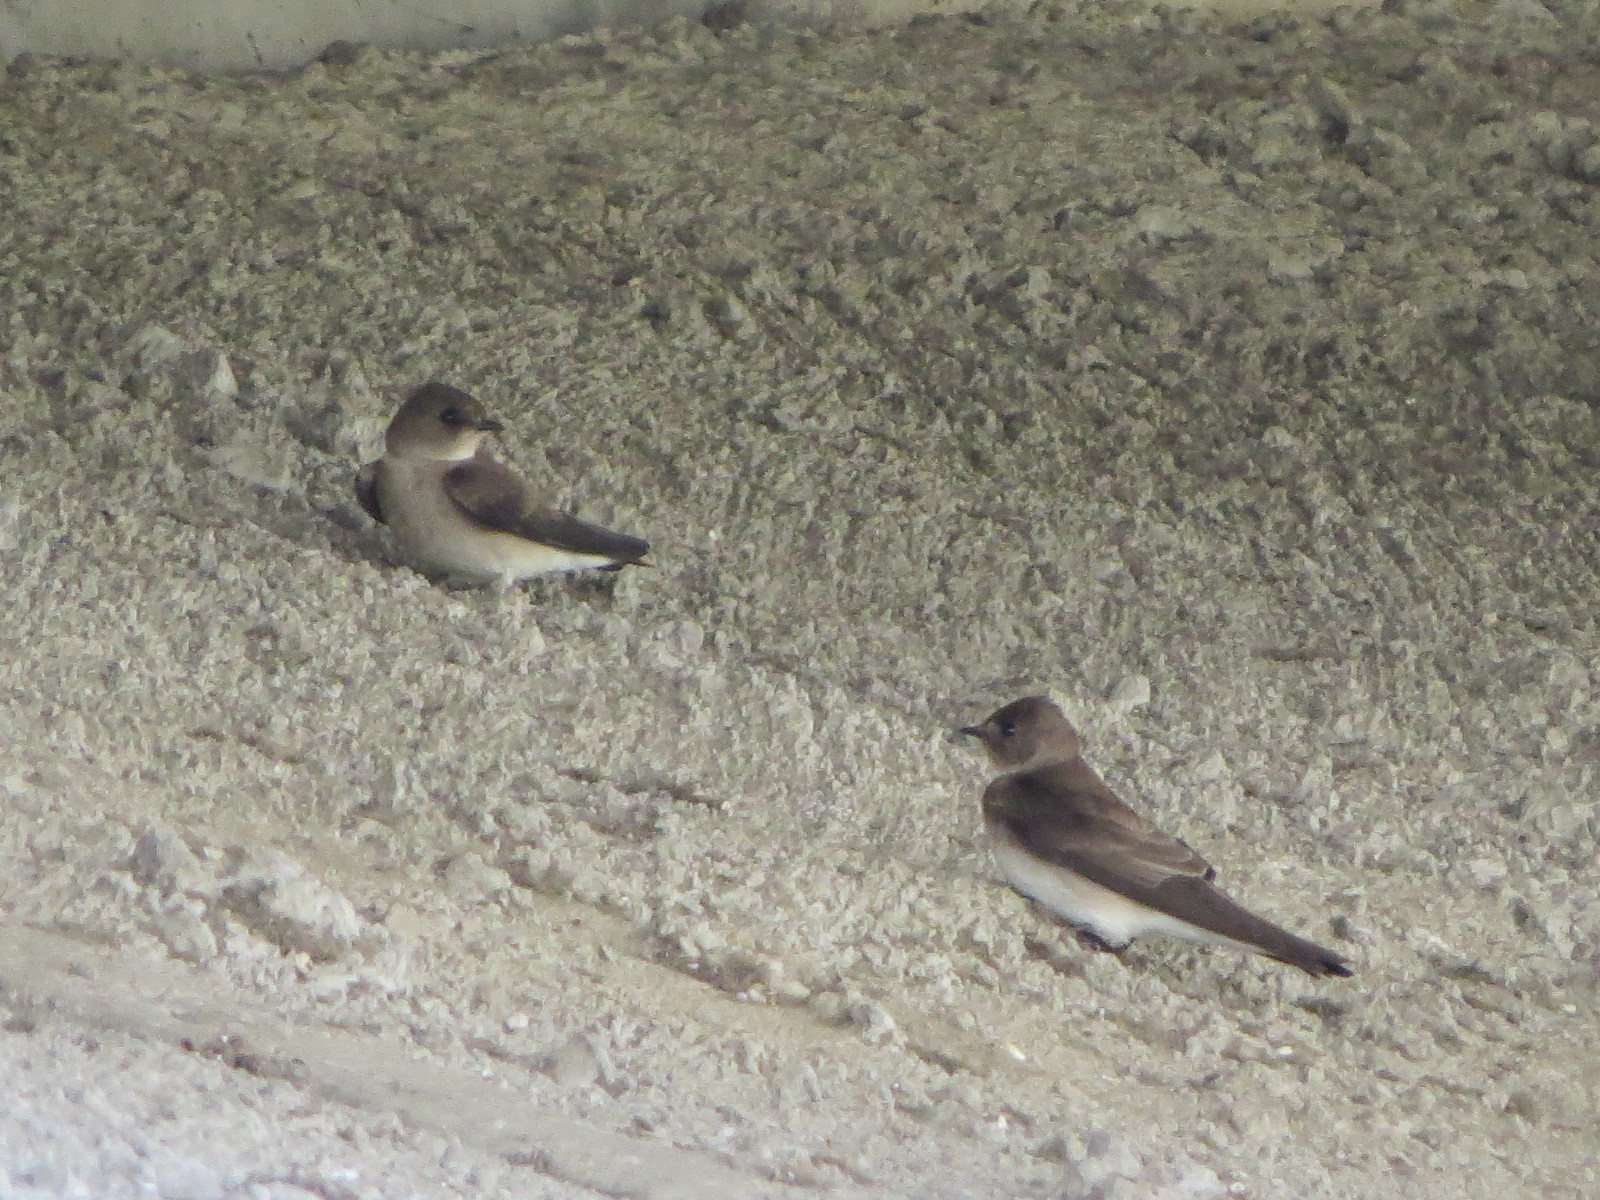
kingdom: Animalia
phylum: Chordata
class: Aves
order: Passeriformes
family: Hirundinidae
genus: Stelgidopteryx
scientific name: Stelgidopteryx serripennis
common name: Northern rough-winged swallow
